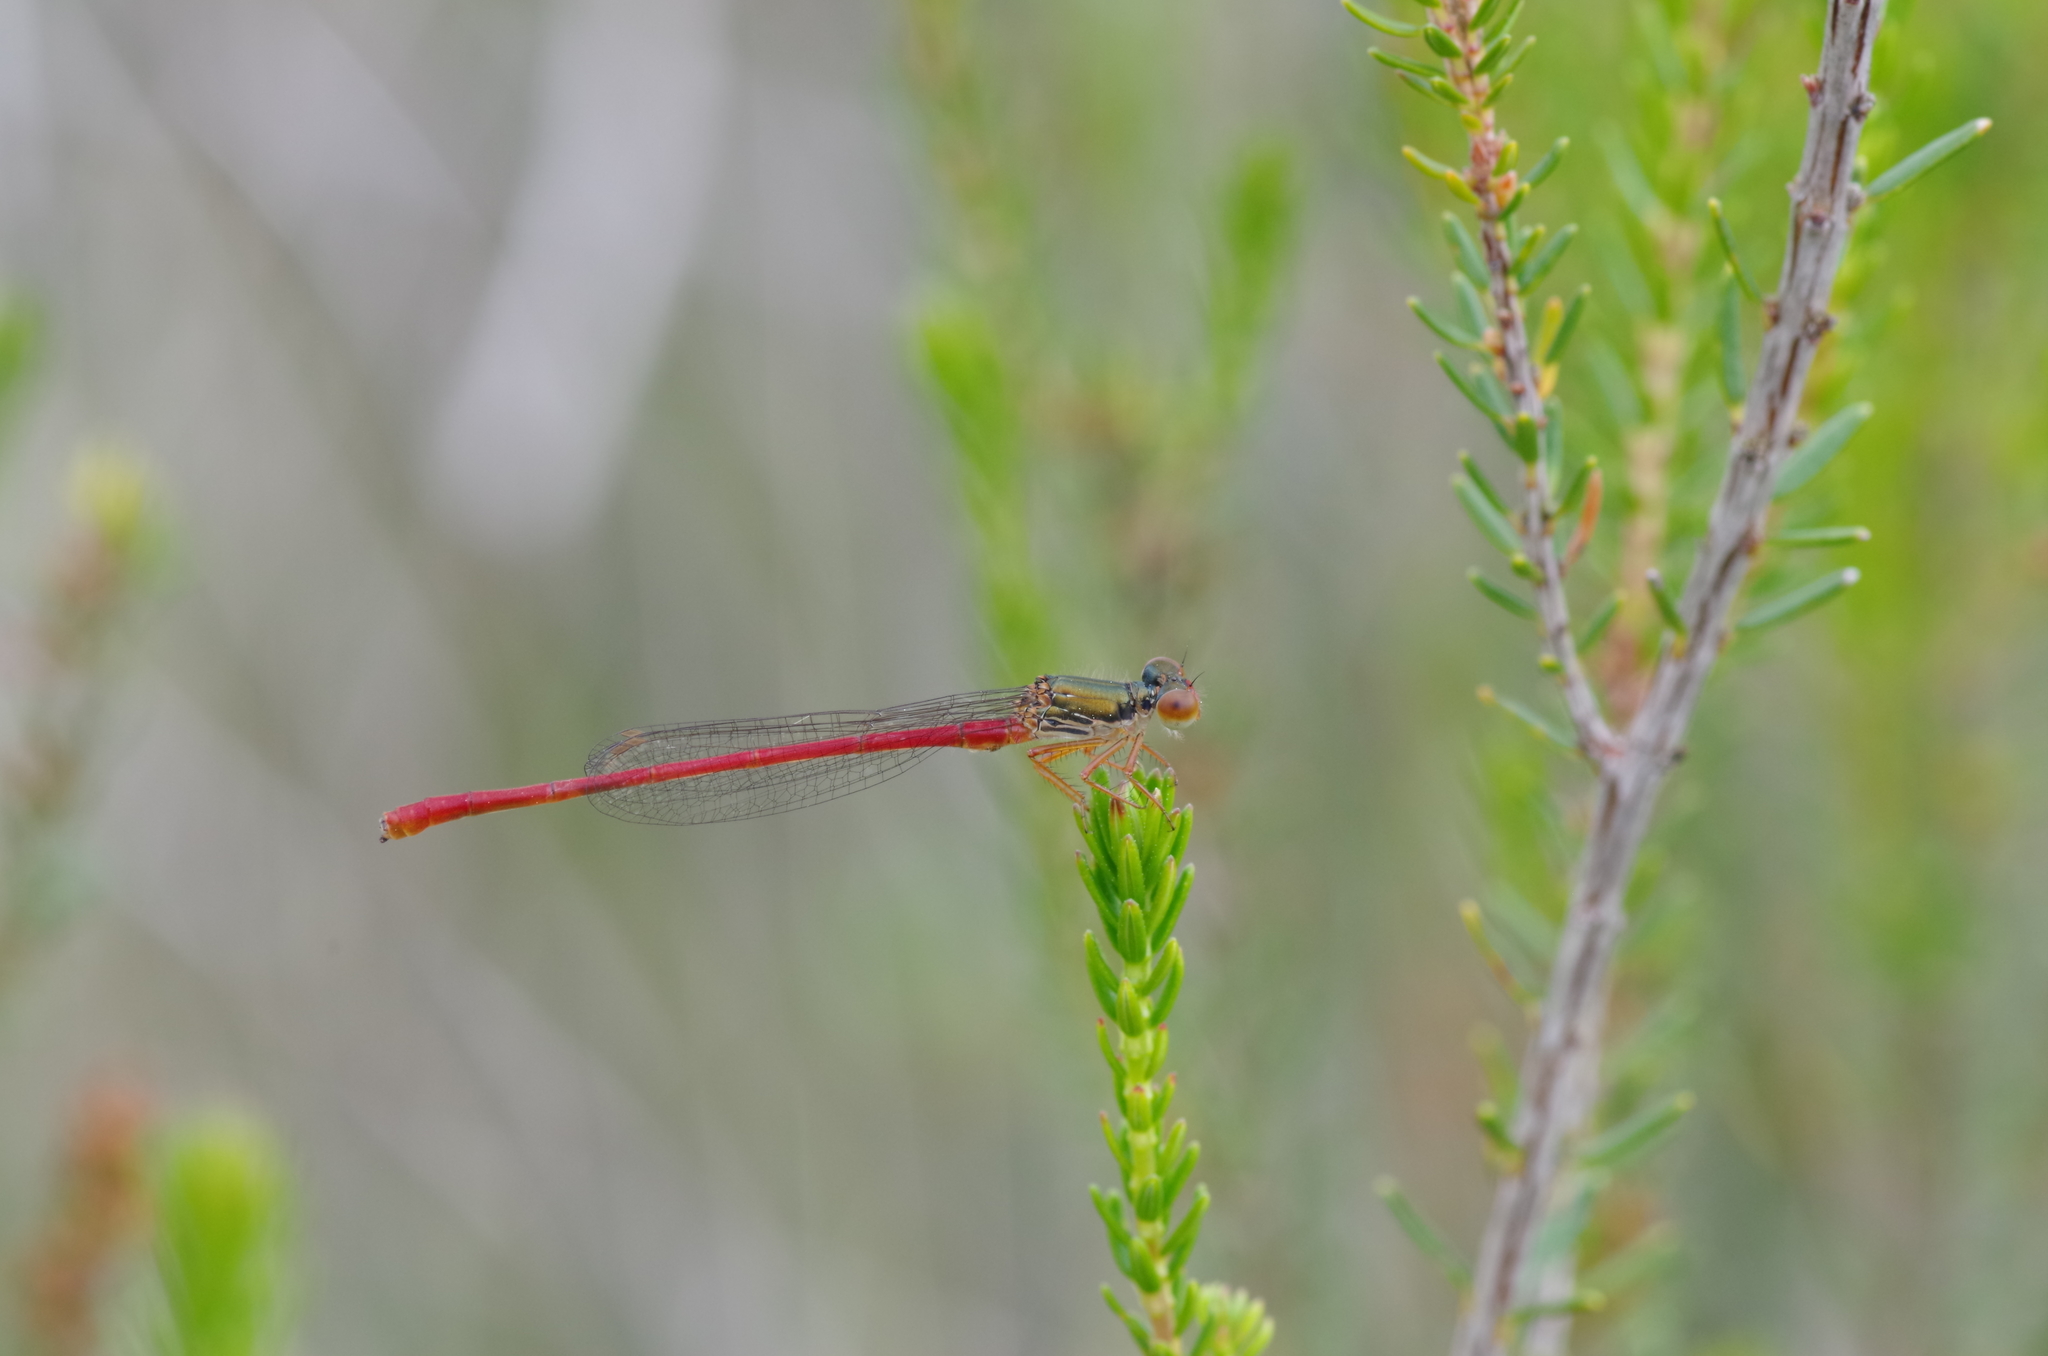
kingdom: Animalia
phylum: Arthropoda
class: Insecta
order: Odonata
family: Coenagrionidae
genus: Ceriagrion
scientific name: Ceriagrion tenellum
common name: Small red damselfly
